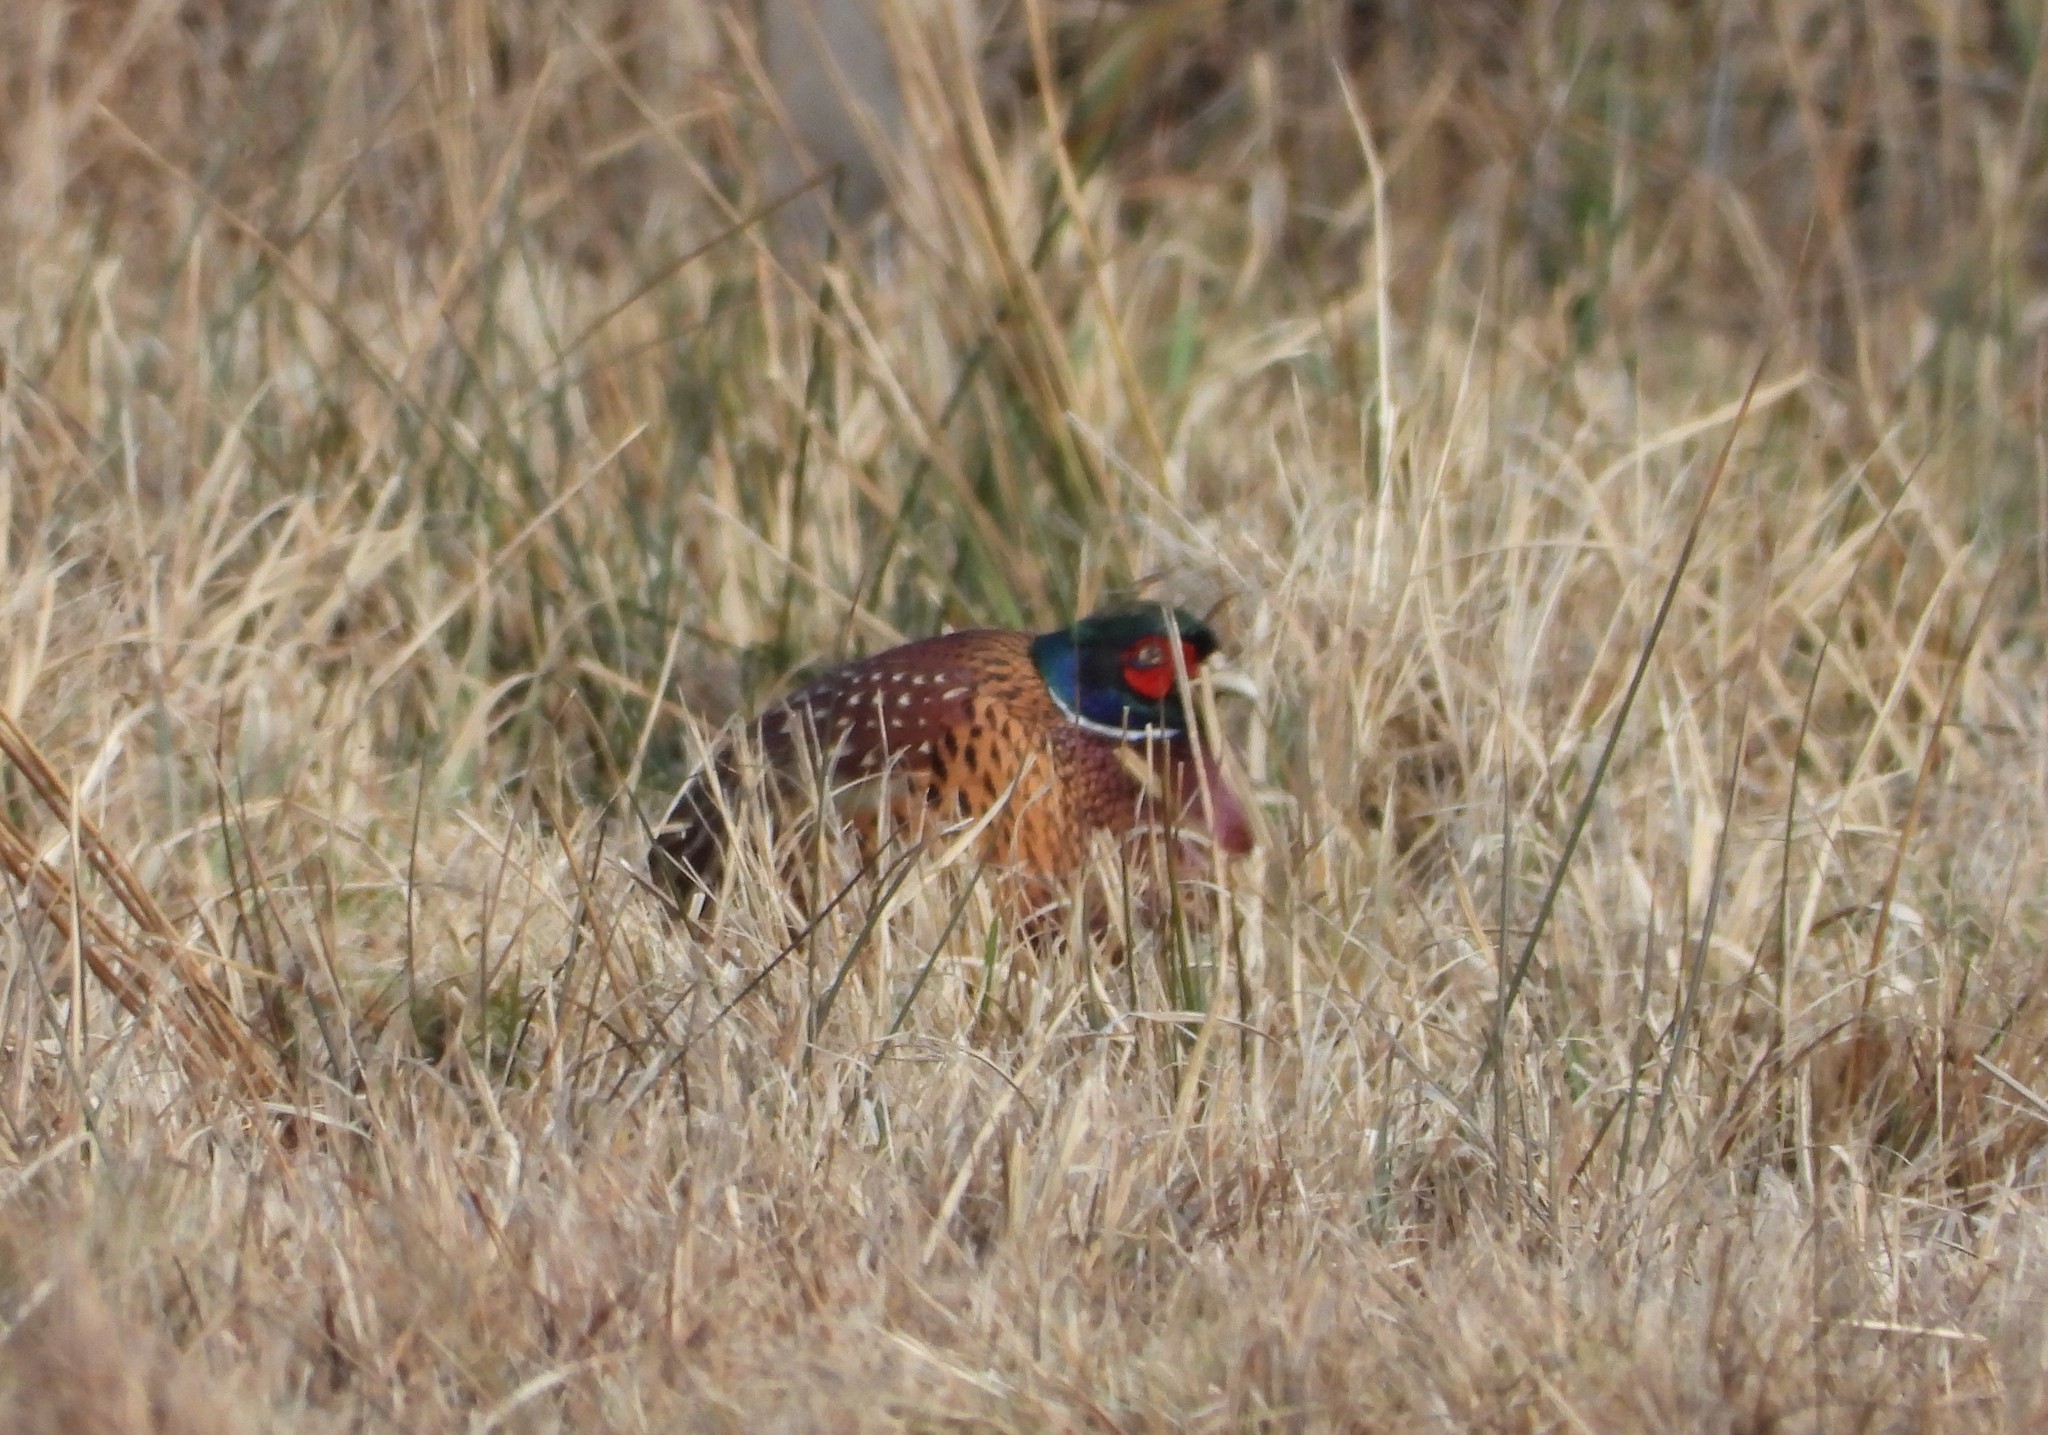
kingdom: Animalia
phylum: Chordata
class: Aves
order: Galliformes
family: Phasianidae
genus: Phasianus
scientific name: Phasianus colchicus
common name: Common pheasant
